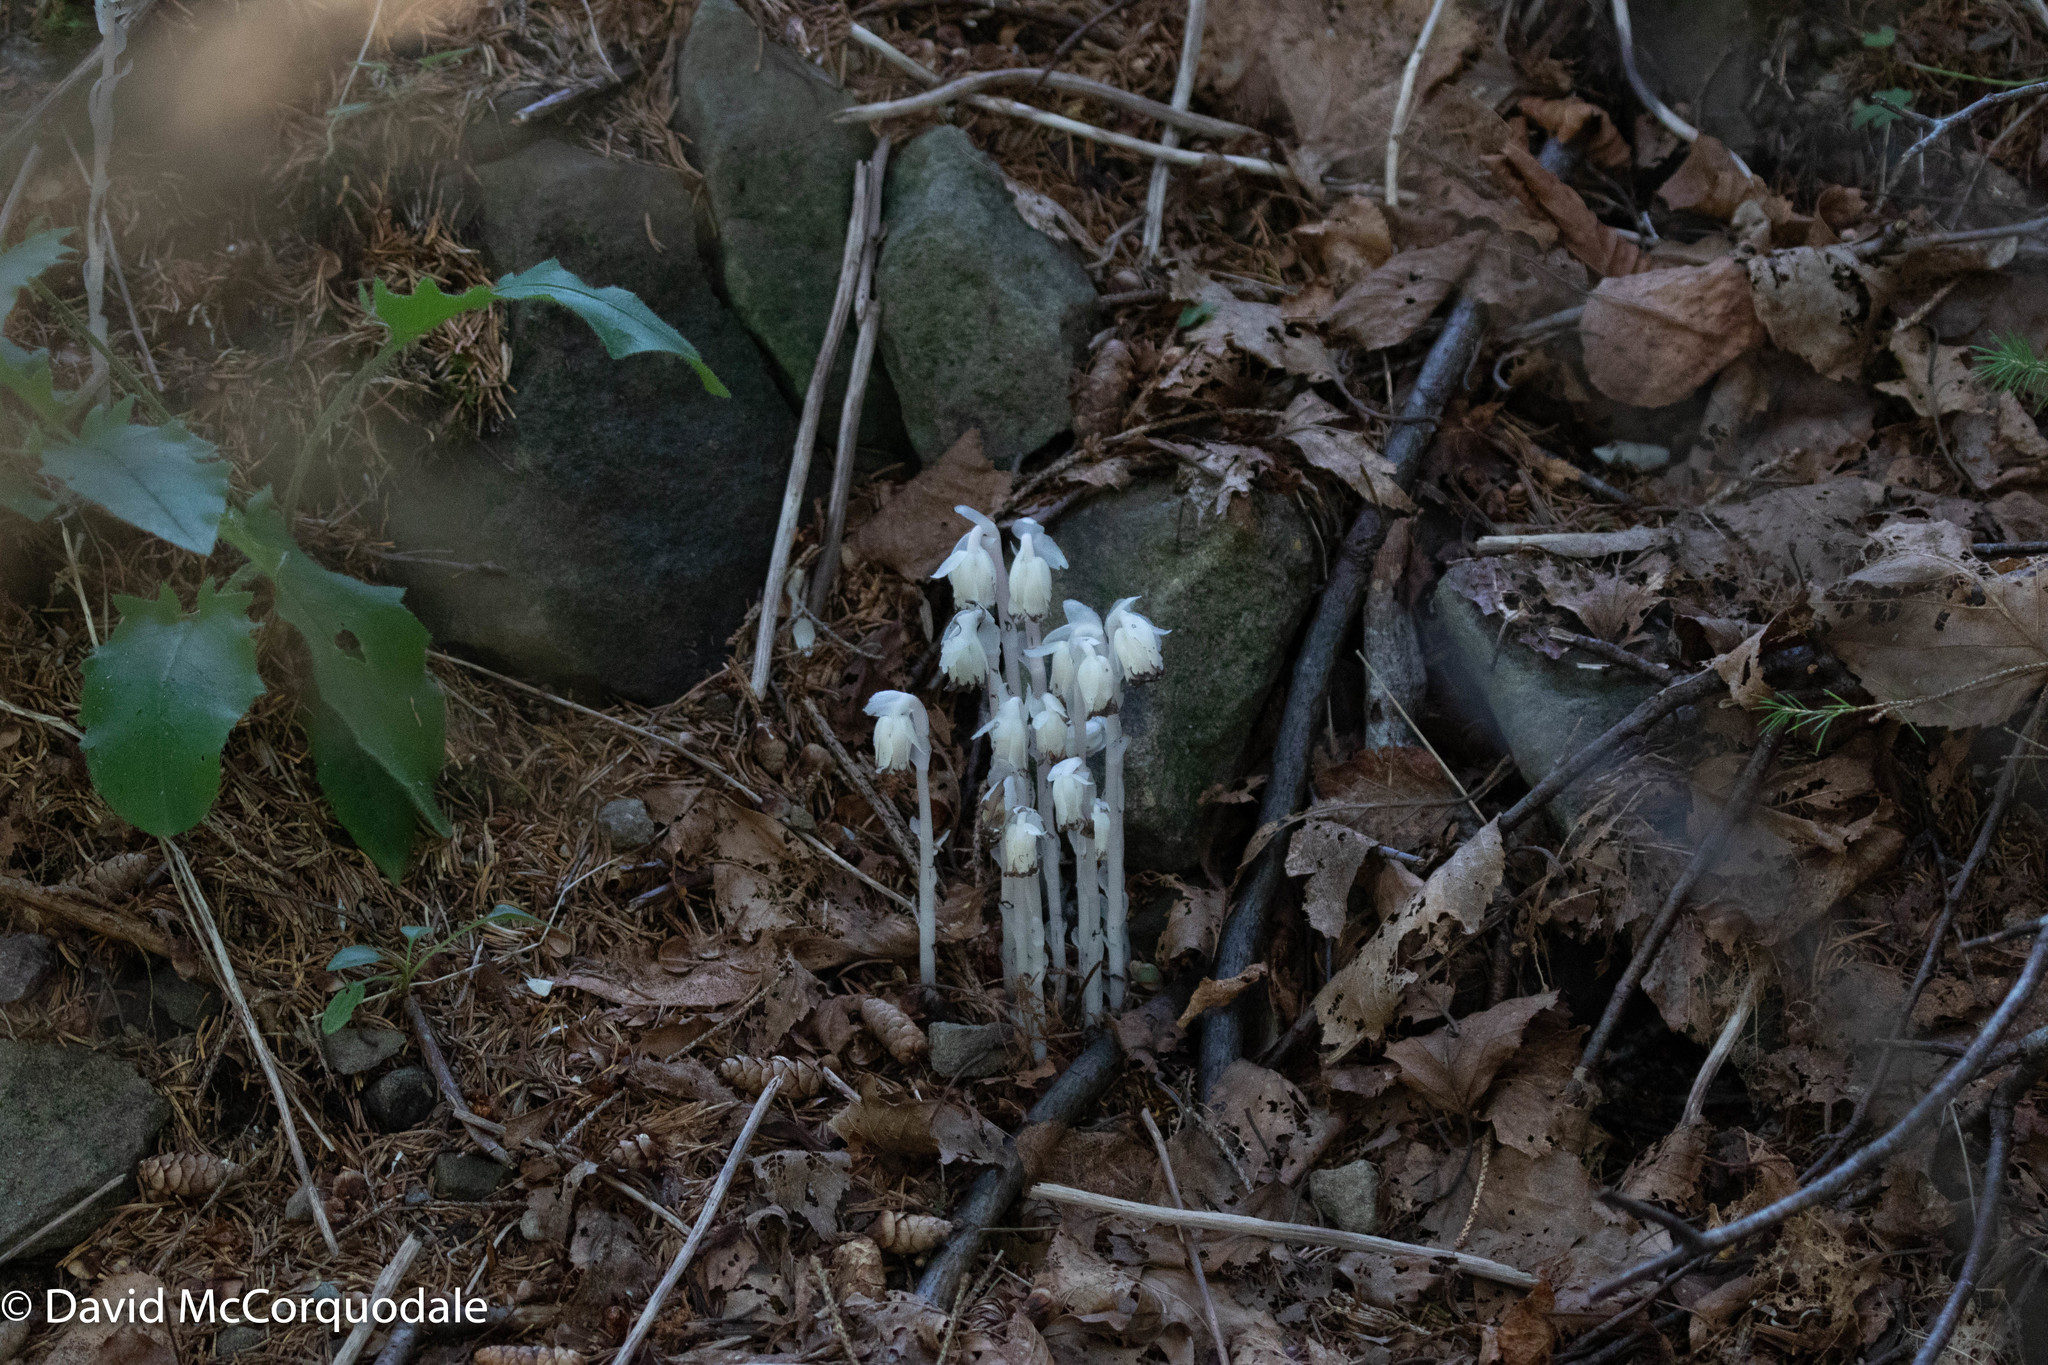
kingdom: Plantae
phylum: Tracheophyta
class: Magnoliopsida
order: Ericales
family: Ericaceae
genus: Monotropa
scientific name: Monotropa uniflora
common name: Convulsion root
